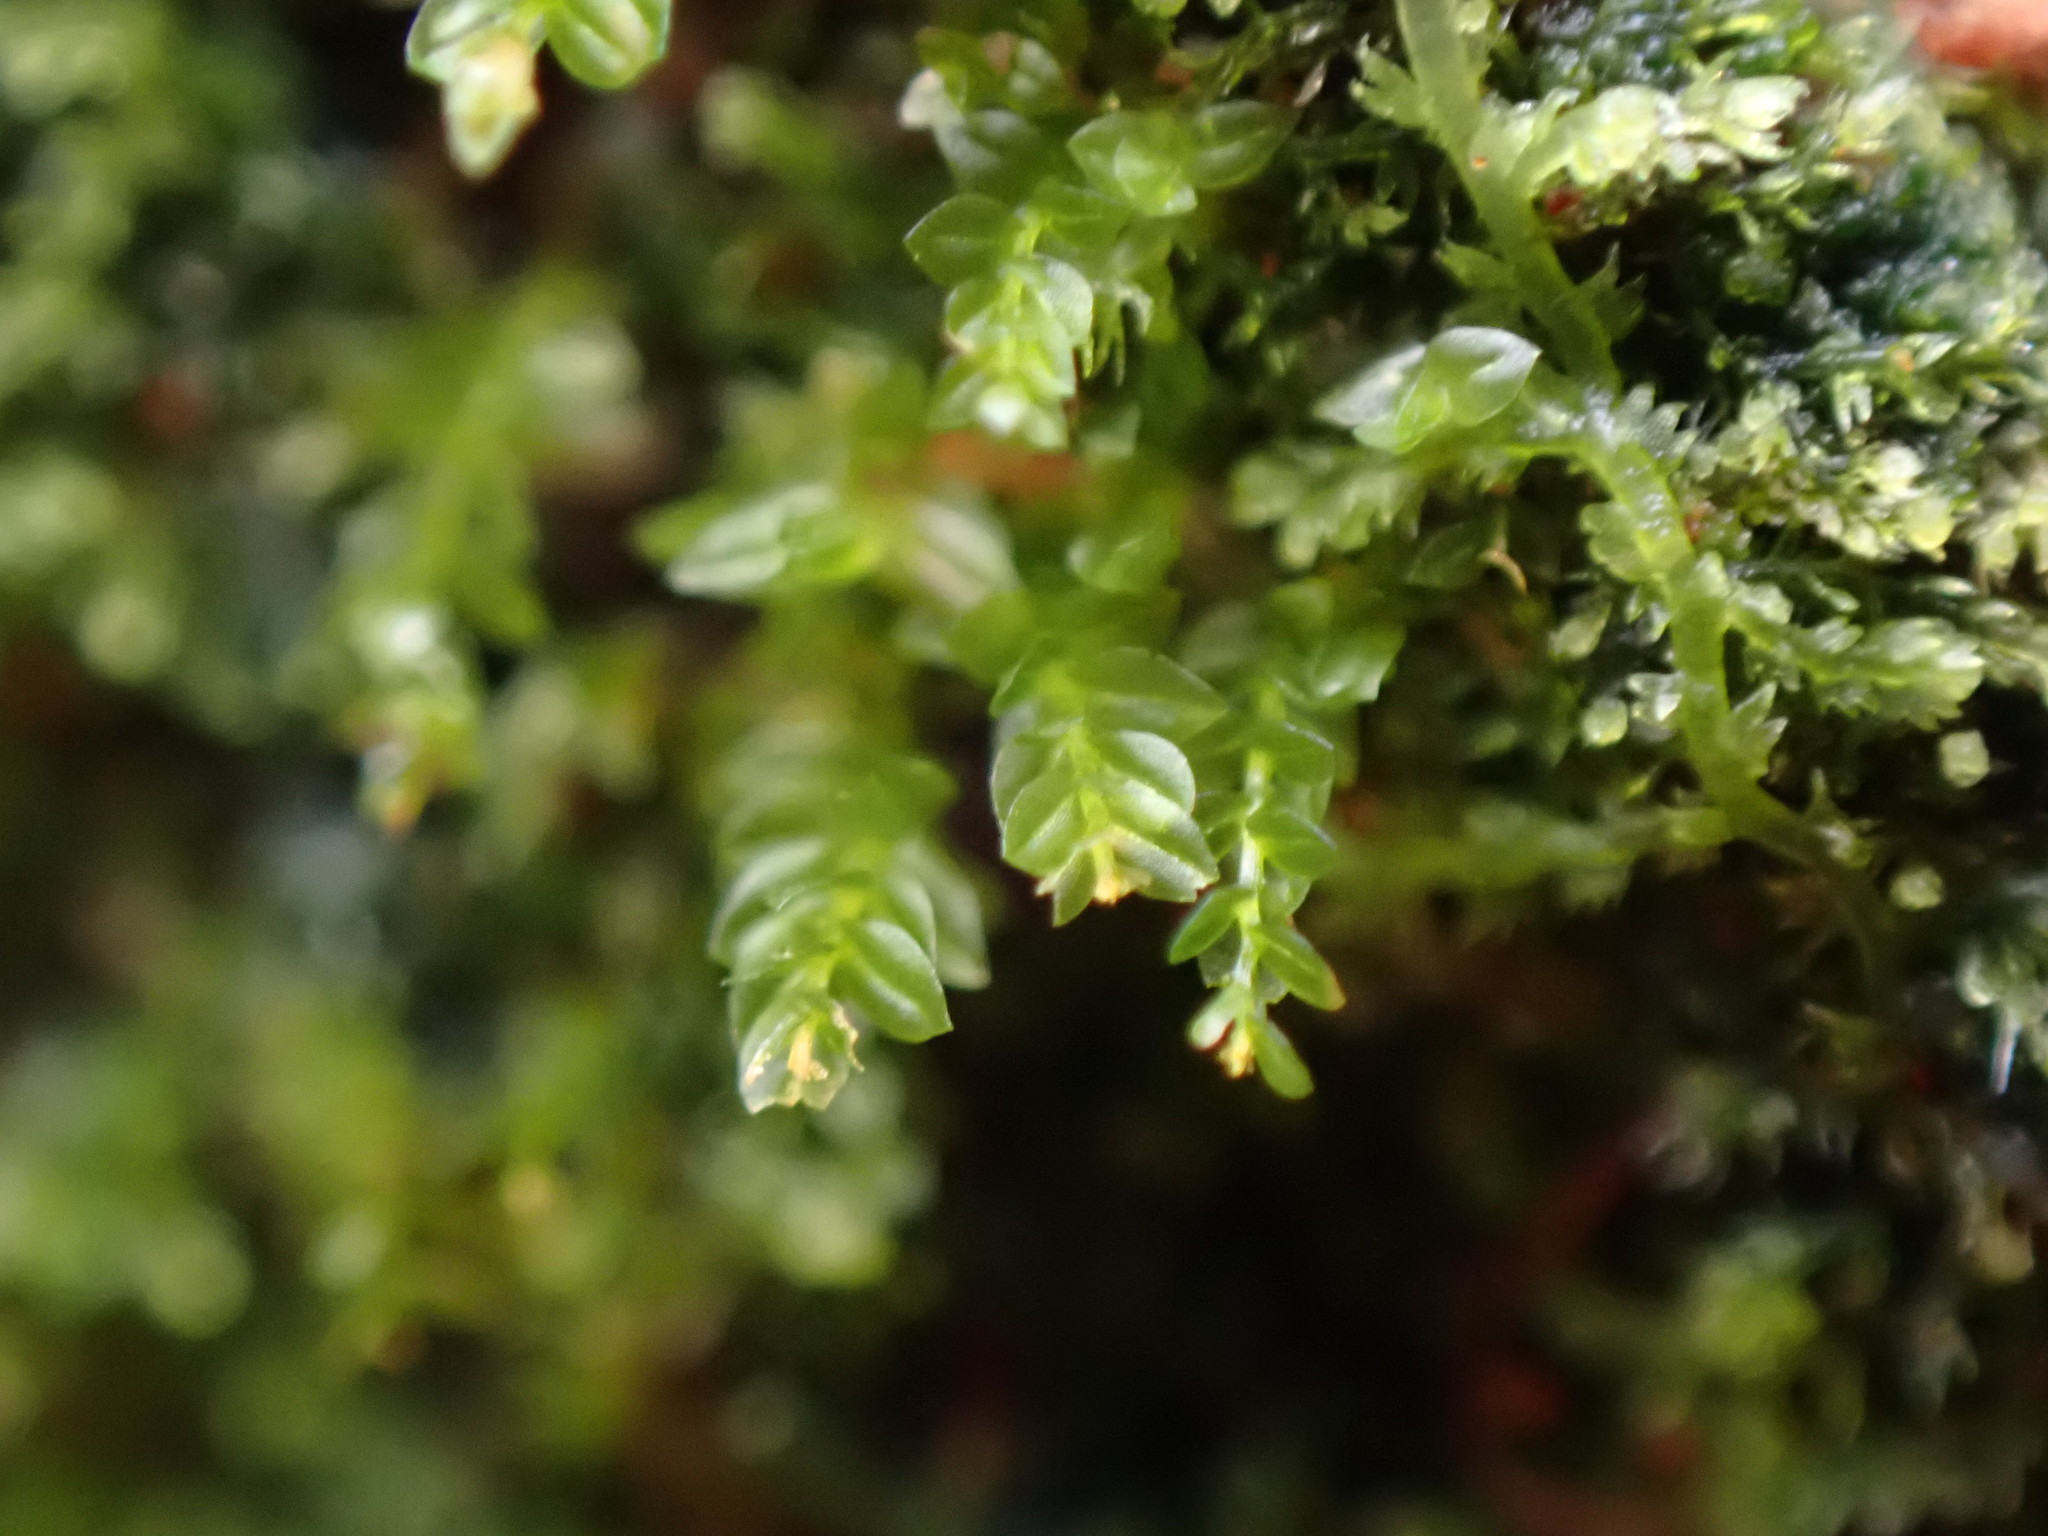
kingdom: Plantae
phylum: Bryophyta
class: Polytrichopsida
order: Tetraphidales
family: Tetraphidaceae
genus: Tetraphis
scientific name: Tetraphis pellucida
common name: Common four-toothed moss
